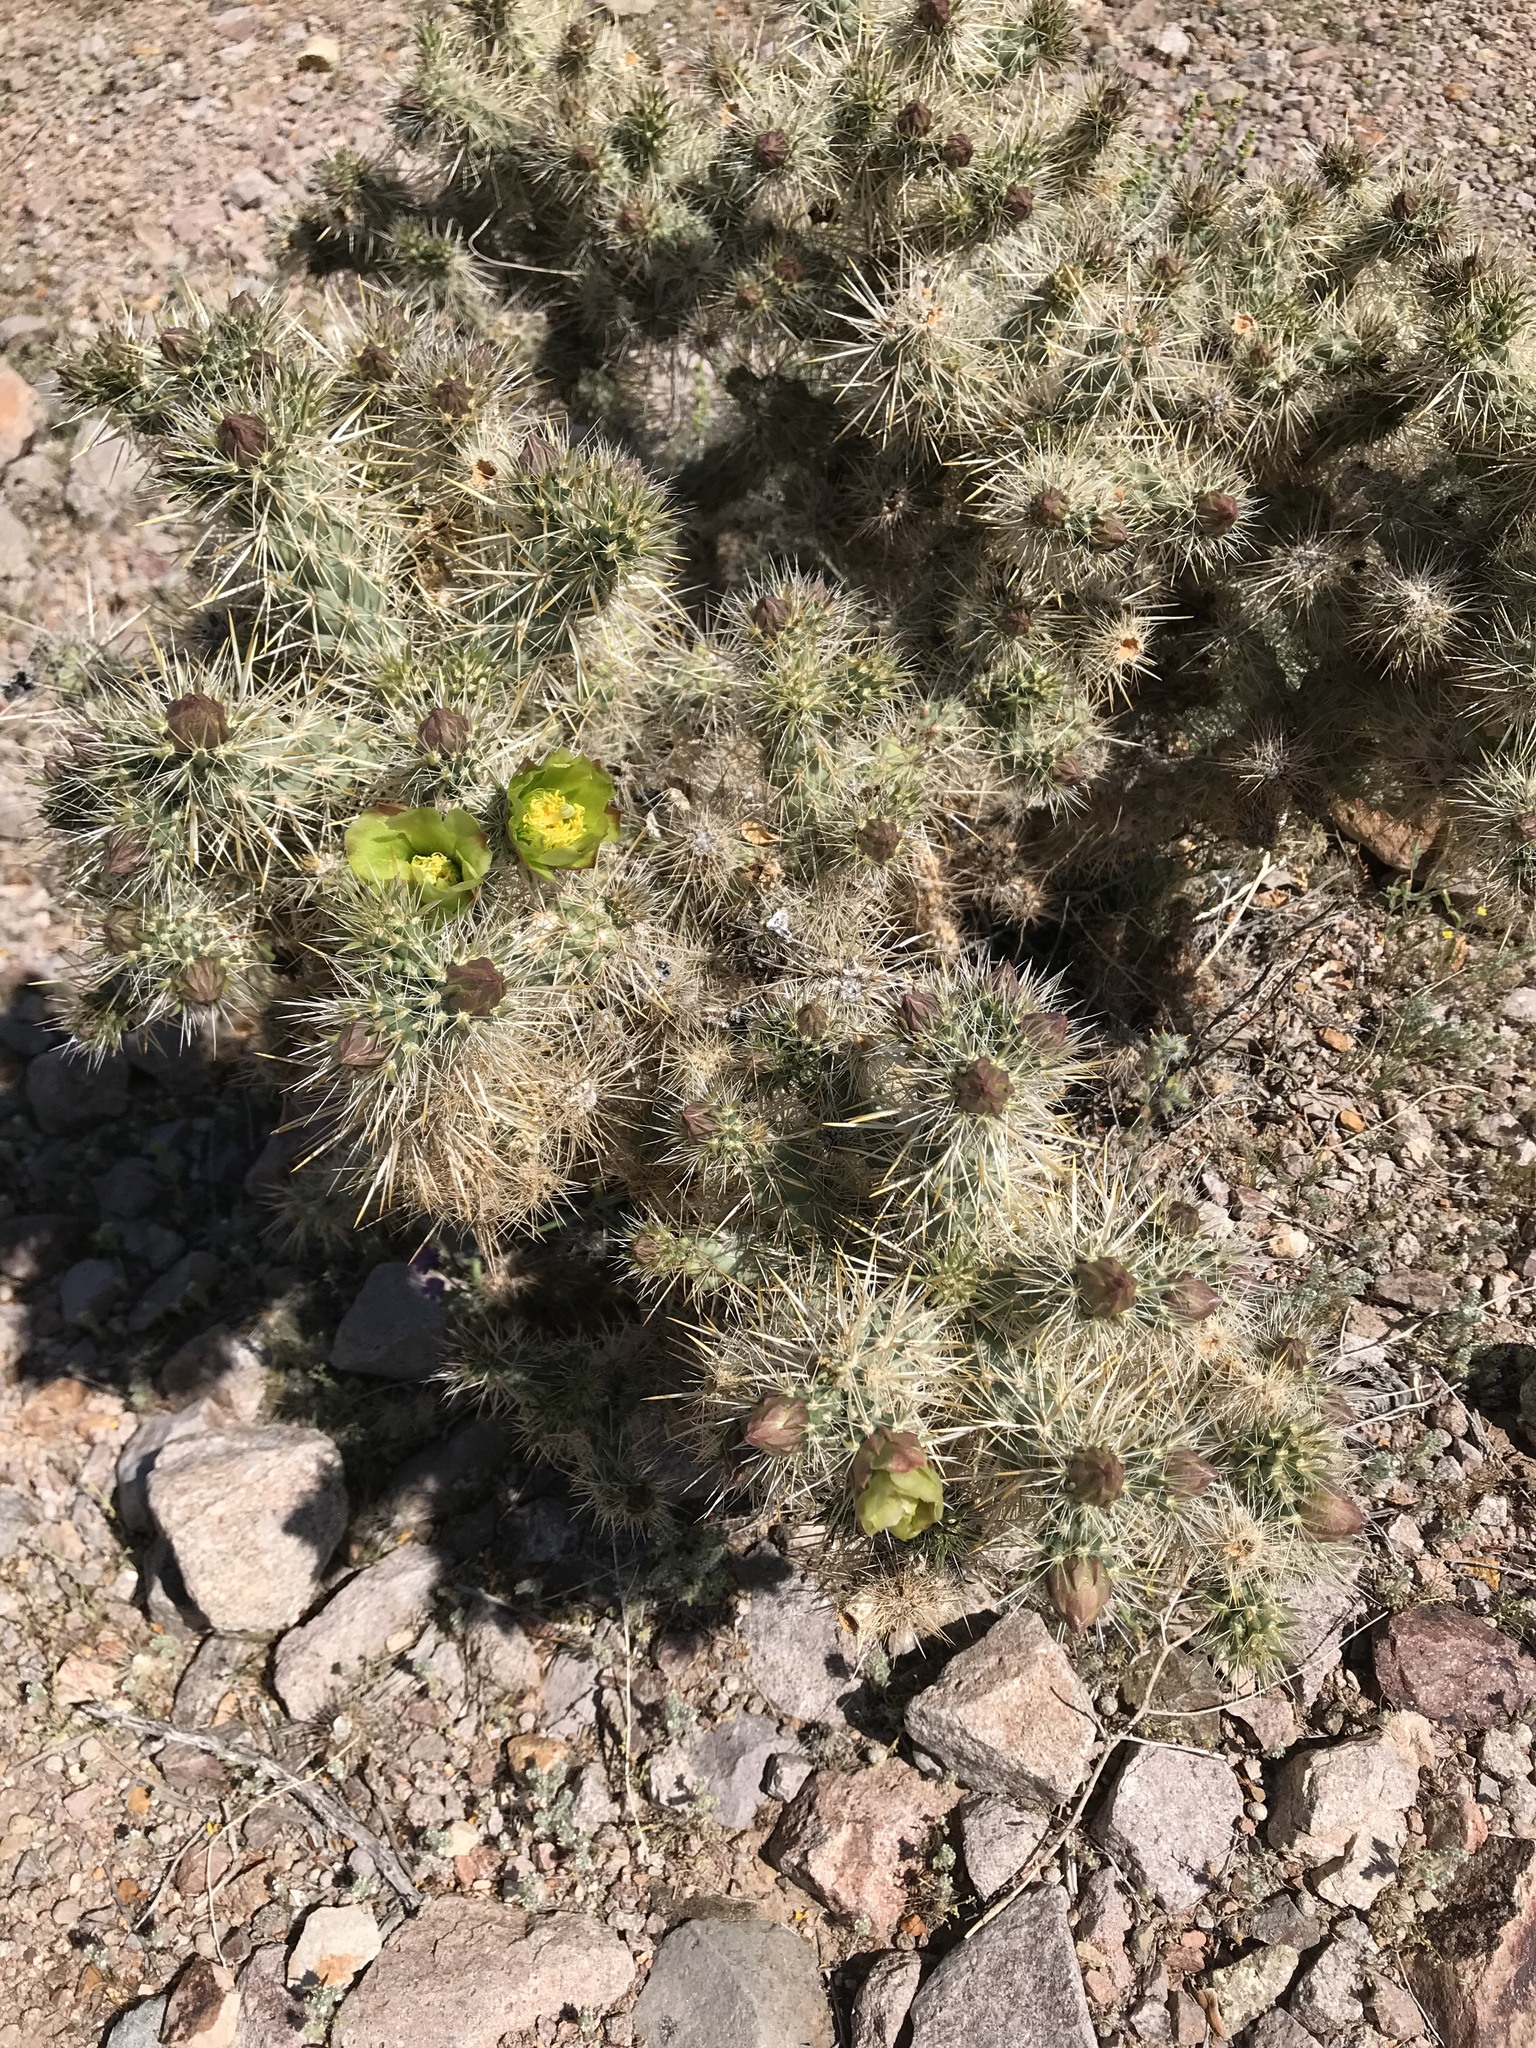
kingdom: Plantae
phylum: Tracheophyta
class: Magnoliopsida
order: Caryophyllales
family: Cactaceae
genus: Cylindropuntia
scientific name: Cylindropuntia echinocarpa
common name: Ground cholla
